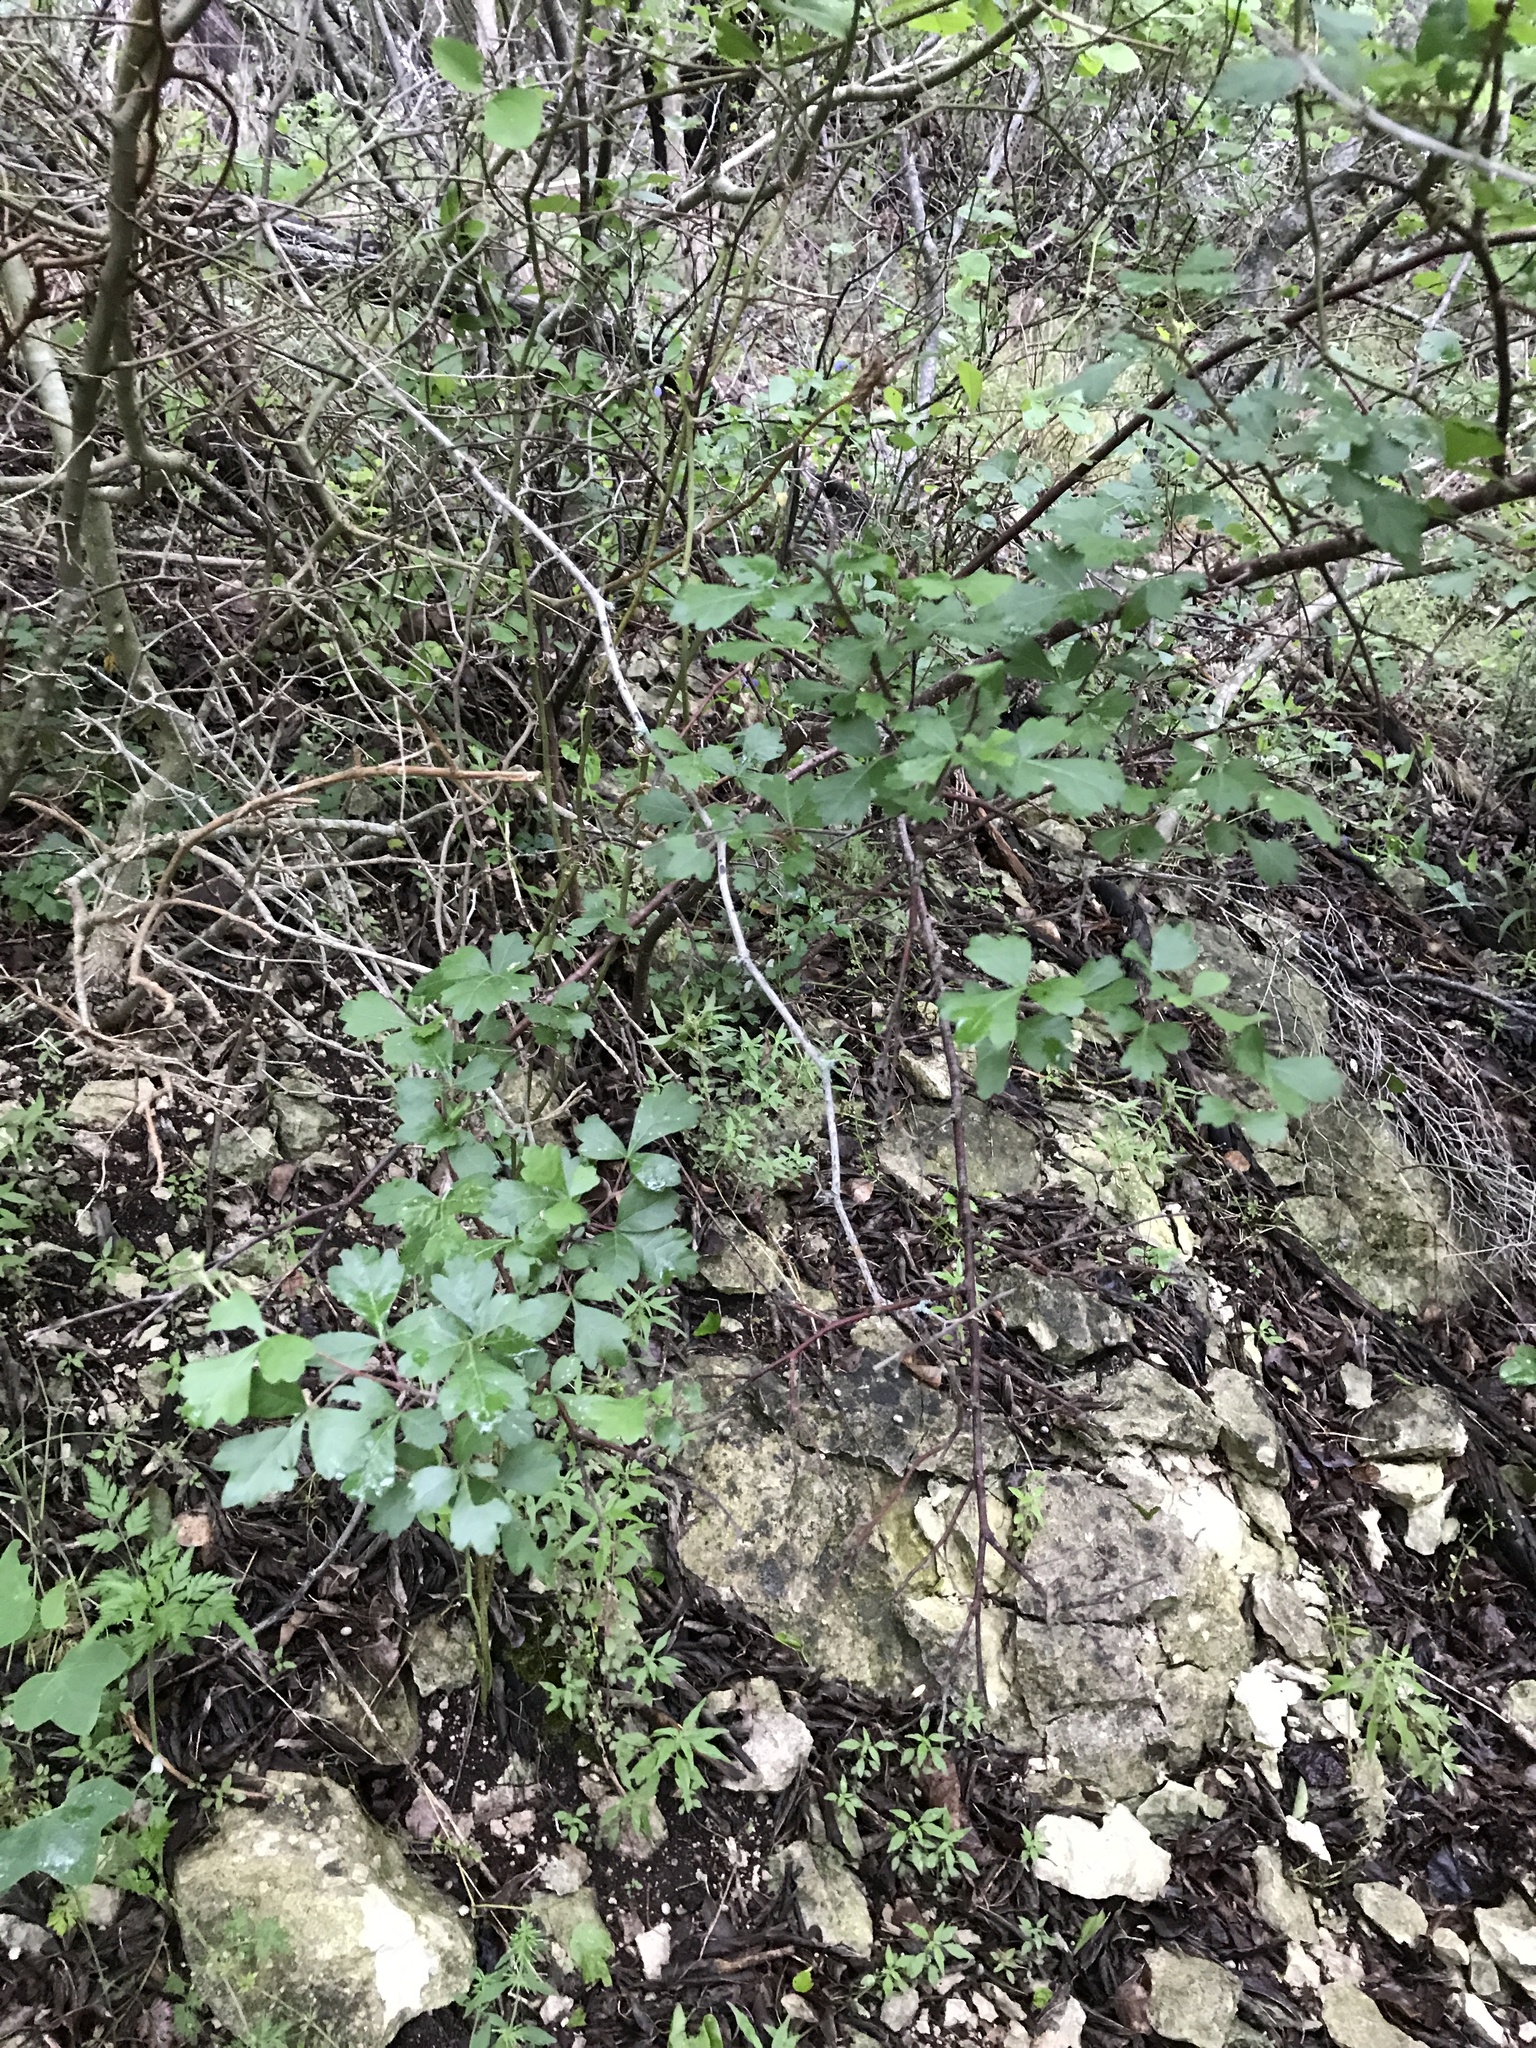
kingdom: Plantae
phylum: Tracheophyta
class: Magnoliopsida
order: Sapindales
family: Anacardiaceae
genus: Rhus
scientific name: Rhus aromatica
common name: Aromatic sumac
